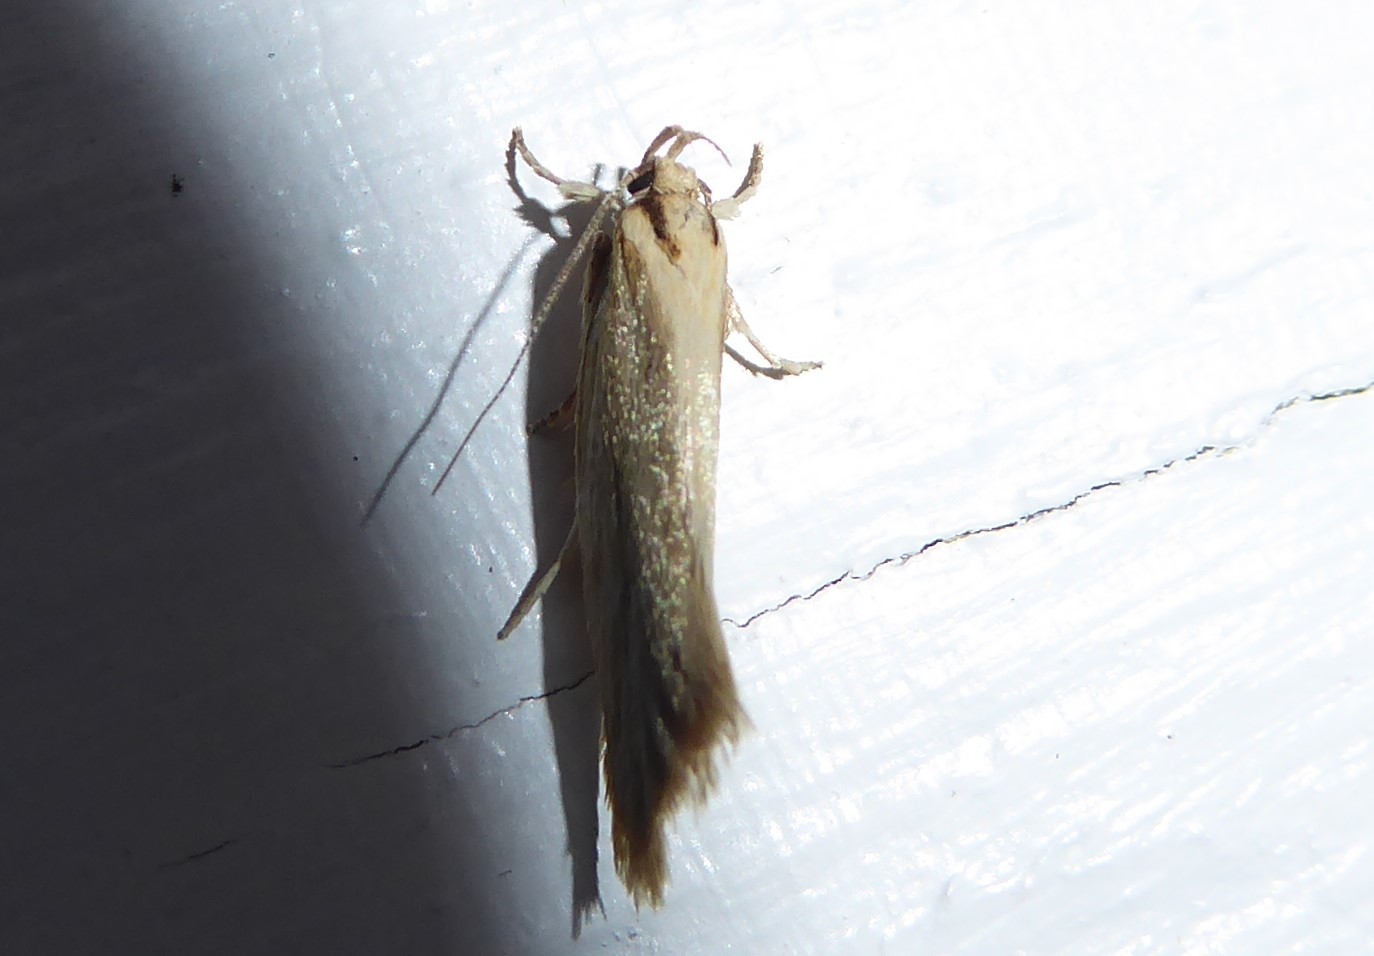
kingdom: Animalia
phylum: Arthropoda
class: Insecta
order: Lepidoptera
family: Oecophoridae
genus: Tingena
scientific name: Tingena chloradelpha
